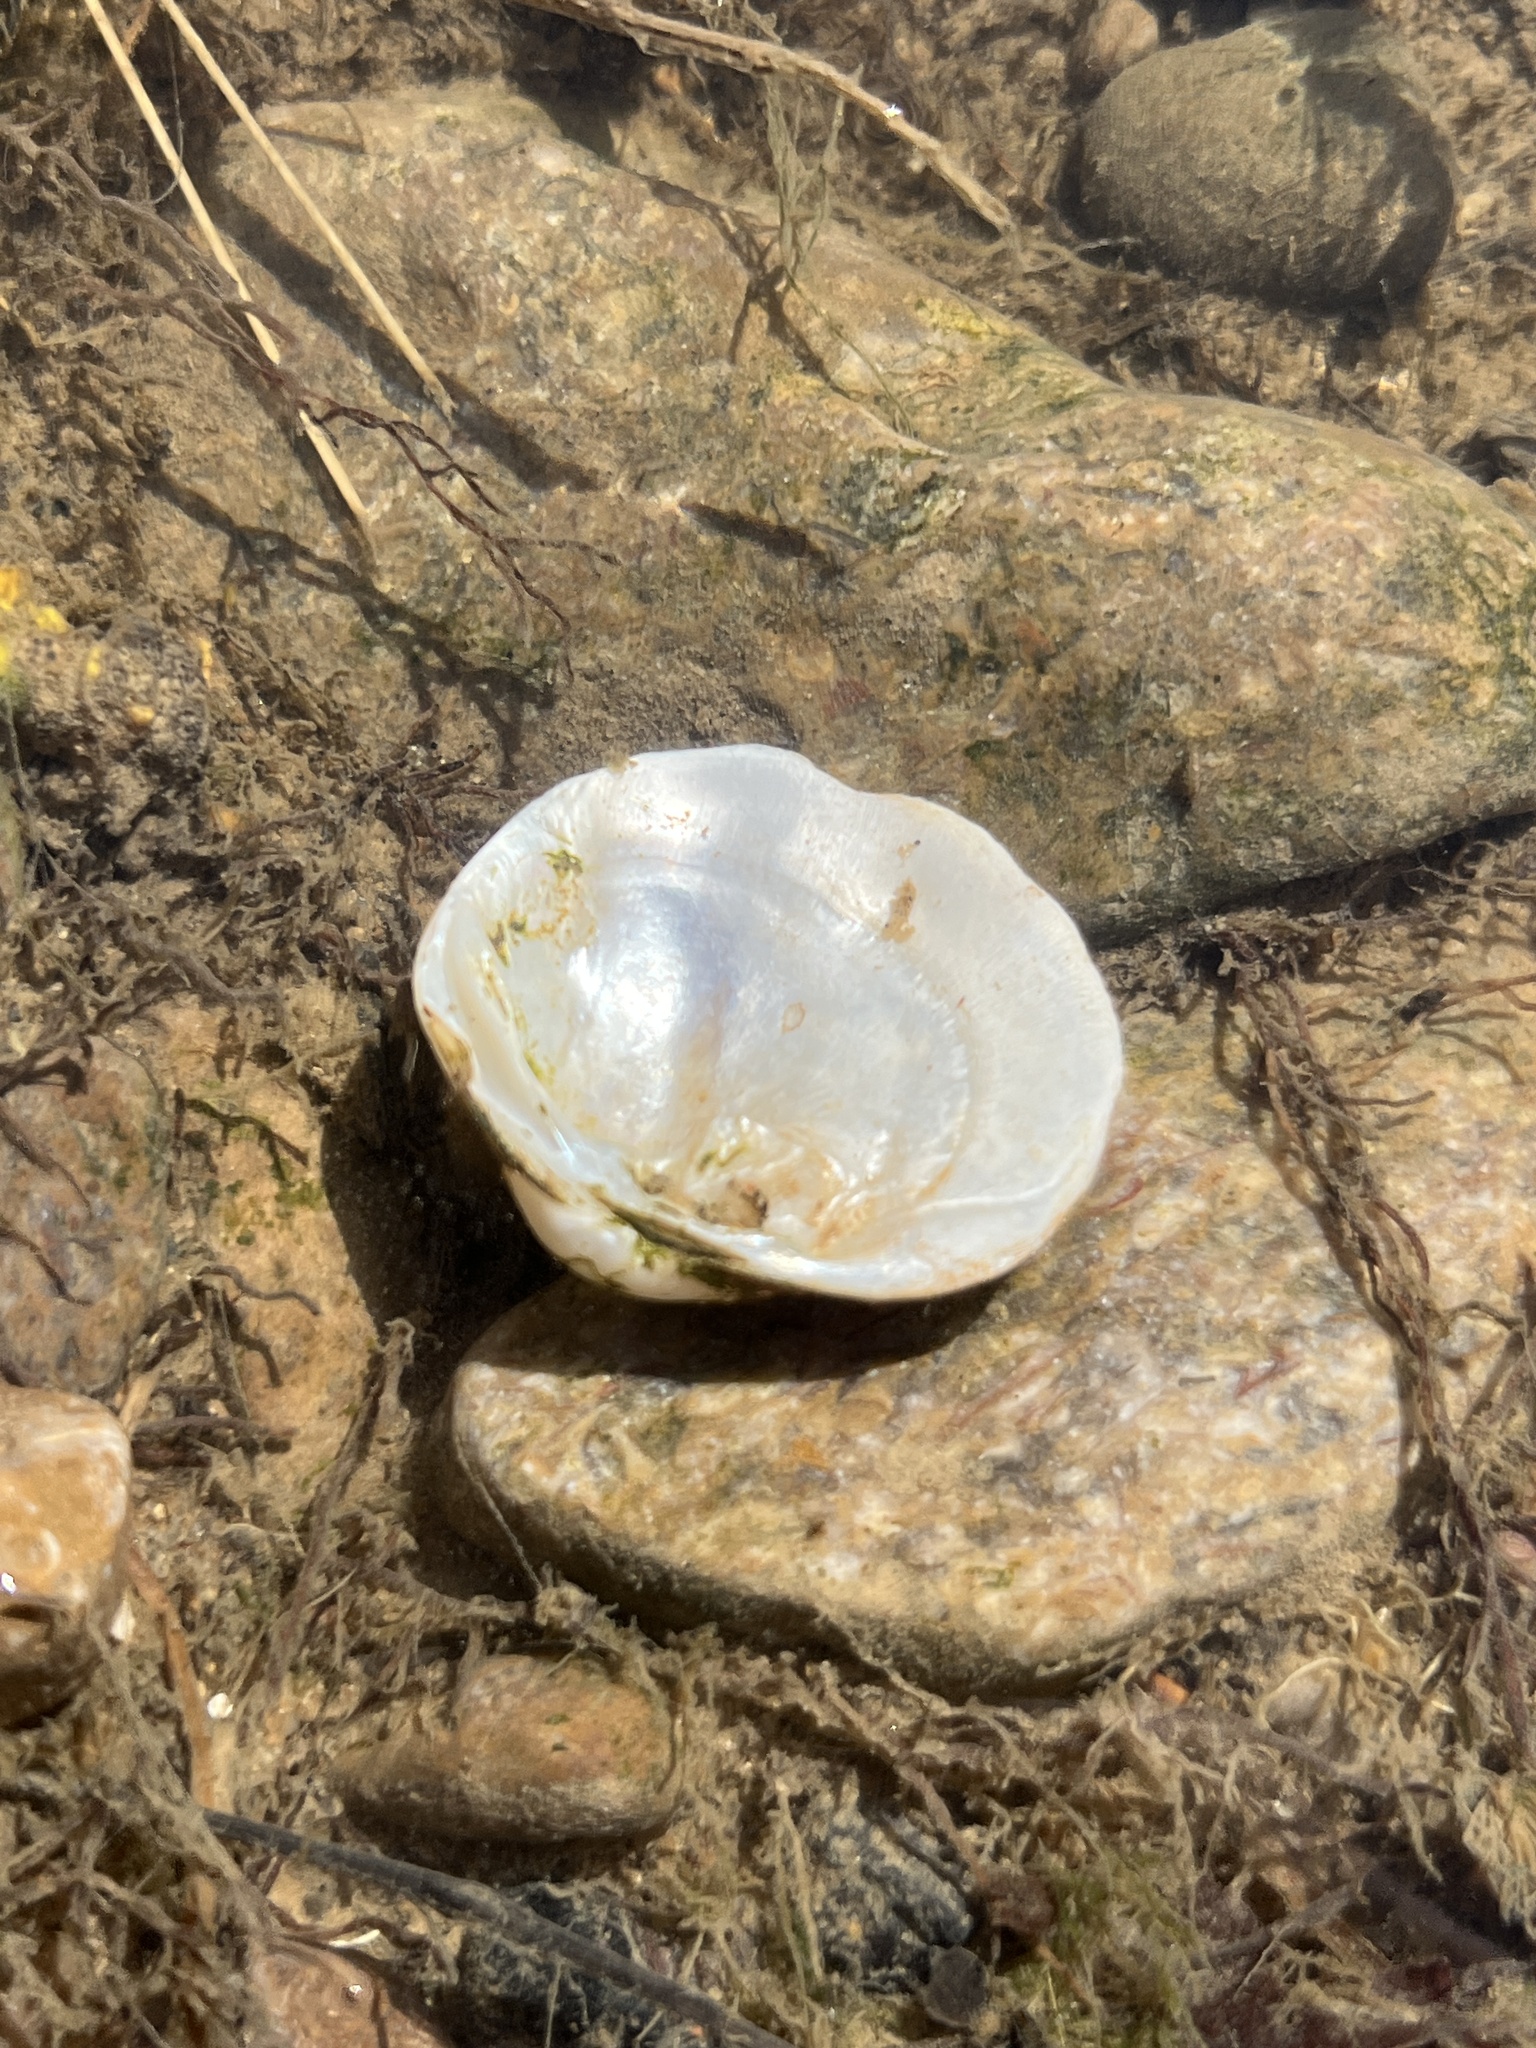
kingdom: Animalia
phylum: Mollusca
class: Bivalvia
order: Unionida
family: Unionidae
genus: Cyclonaias
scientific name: Cyclonaias nodulata
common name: Wartyback
